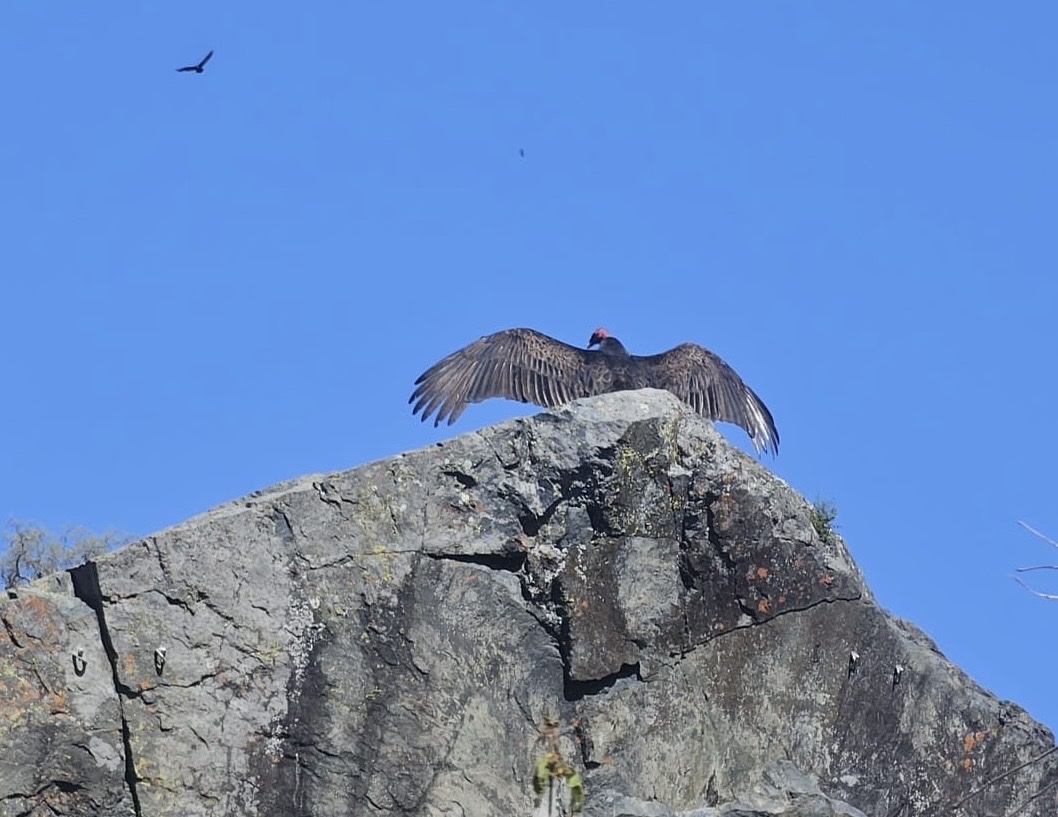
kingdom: Animalia
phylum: Chordata
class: Aves
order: Accipitriformes
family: Cathartidae
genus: Cathartes
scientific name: Cathartes aura
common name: Turkey vulture
